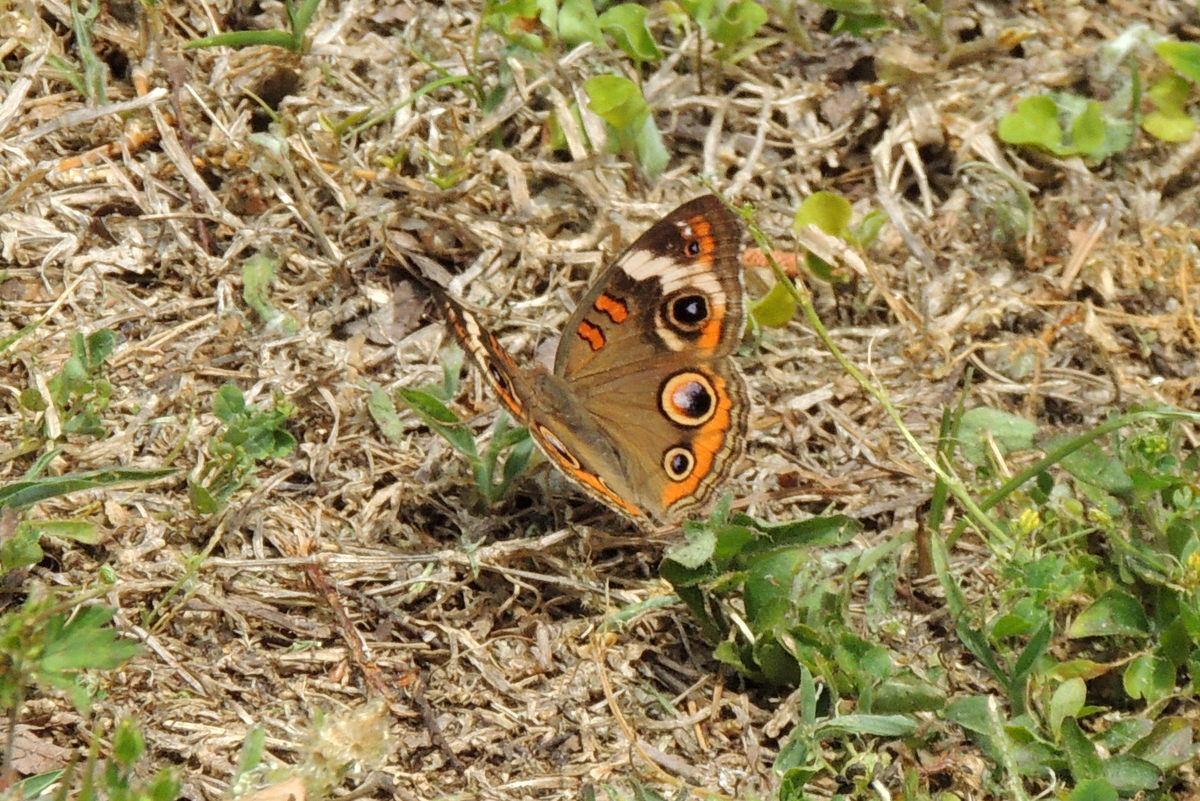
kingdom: Animalia
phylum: Arthropoda
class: Insecta
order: Lepidoptera
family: Nymphalidae
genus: Junonia
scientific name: Junonia coenia
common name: Common buckeye
